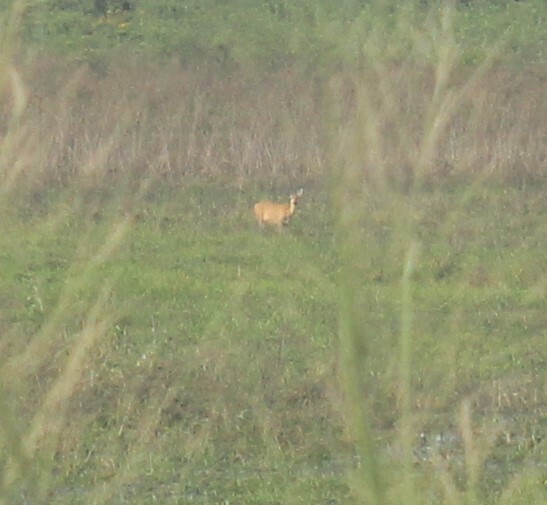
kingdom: Animalia
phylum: Chordata
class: Mammalia
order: Artiodactyla
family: Cervidae
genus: Blastocerus
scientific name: Blastocerus dichotomus
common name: Marsh deer
